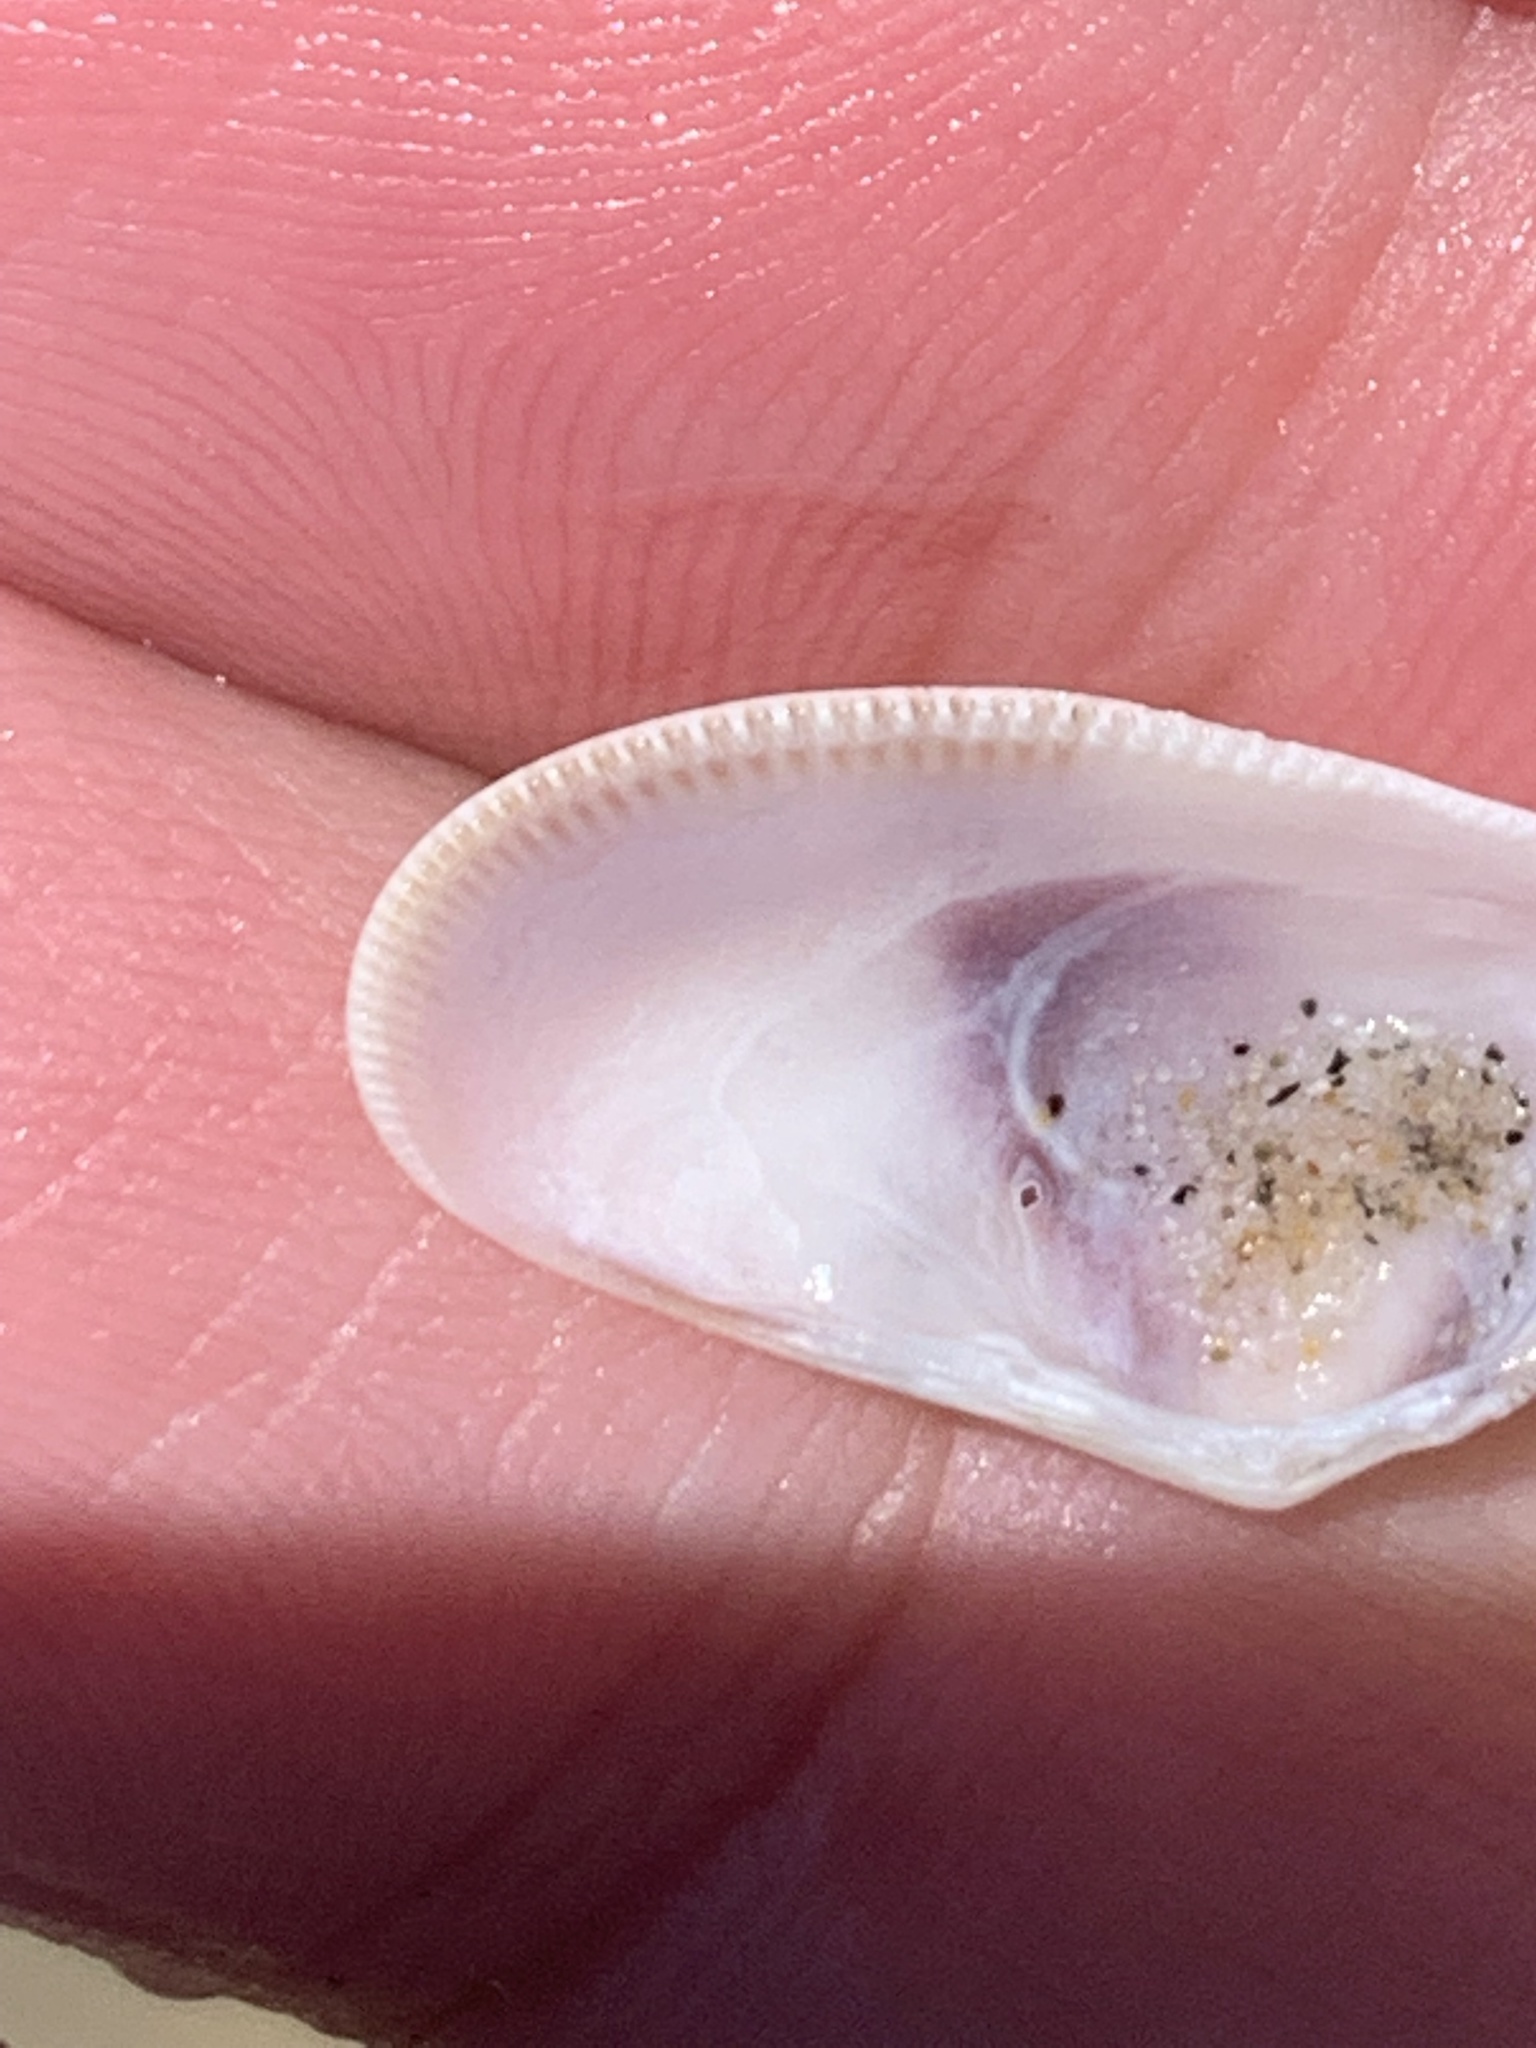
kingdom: Animalia
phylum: Mollusca
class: Bivalvia
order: Cardiida
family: Donacidae
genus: Donax
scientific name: Donax gouldii
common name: Gould beanclam
